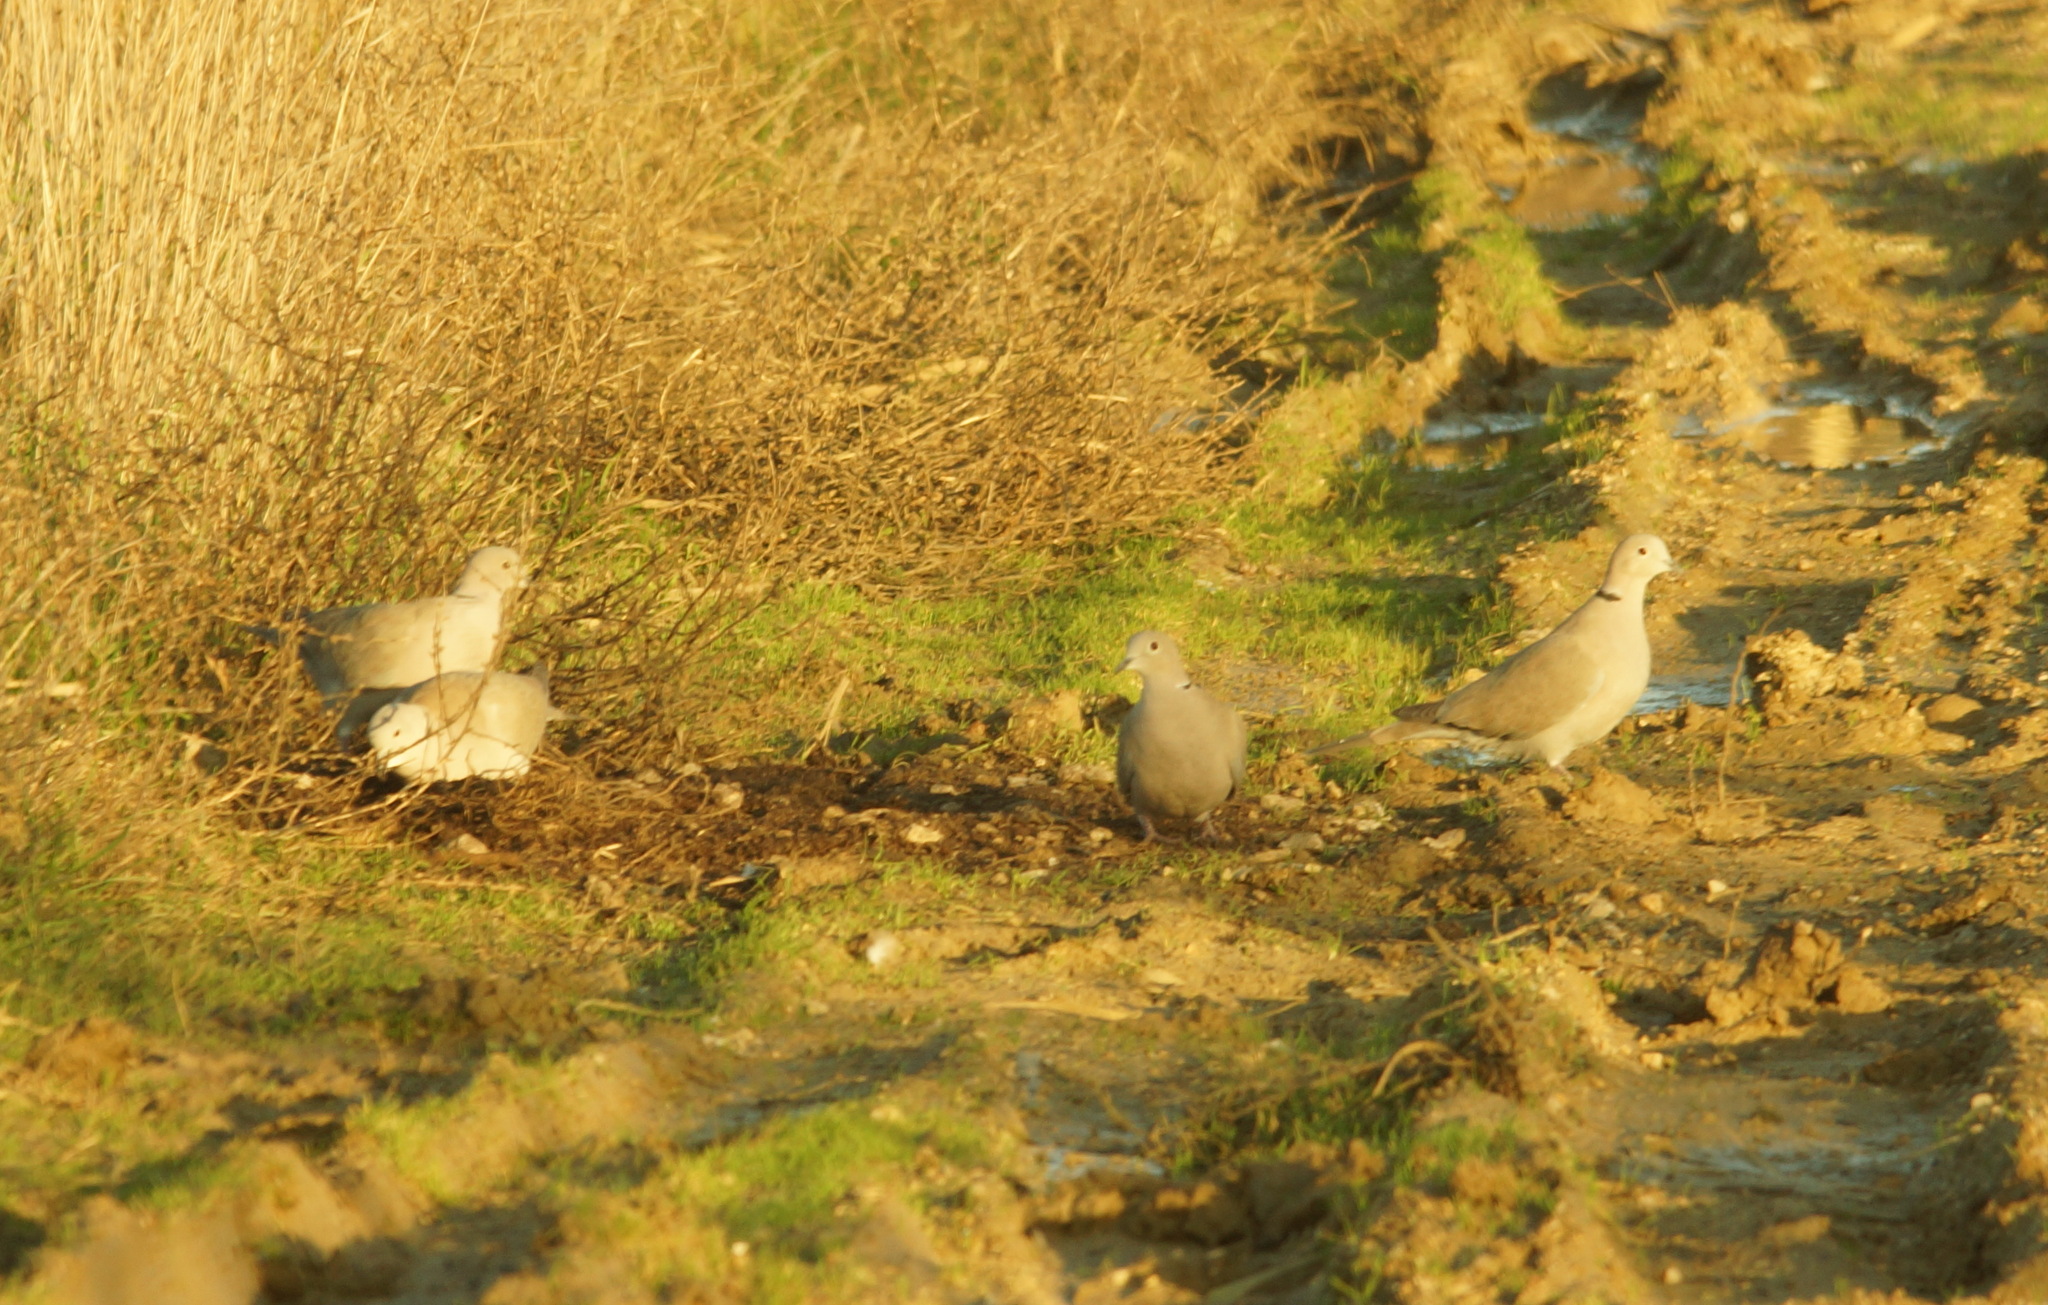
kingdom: Animalia
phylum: Chordata
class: Aves
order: Columbiformes
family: Columbidae
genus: Streptopelia
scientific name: Streptopelia decaocto
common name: Eurasian collared dove
